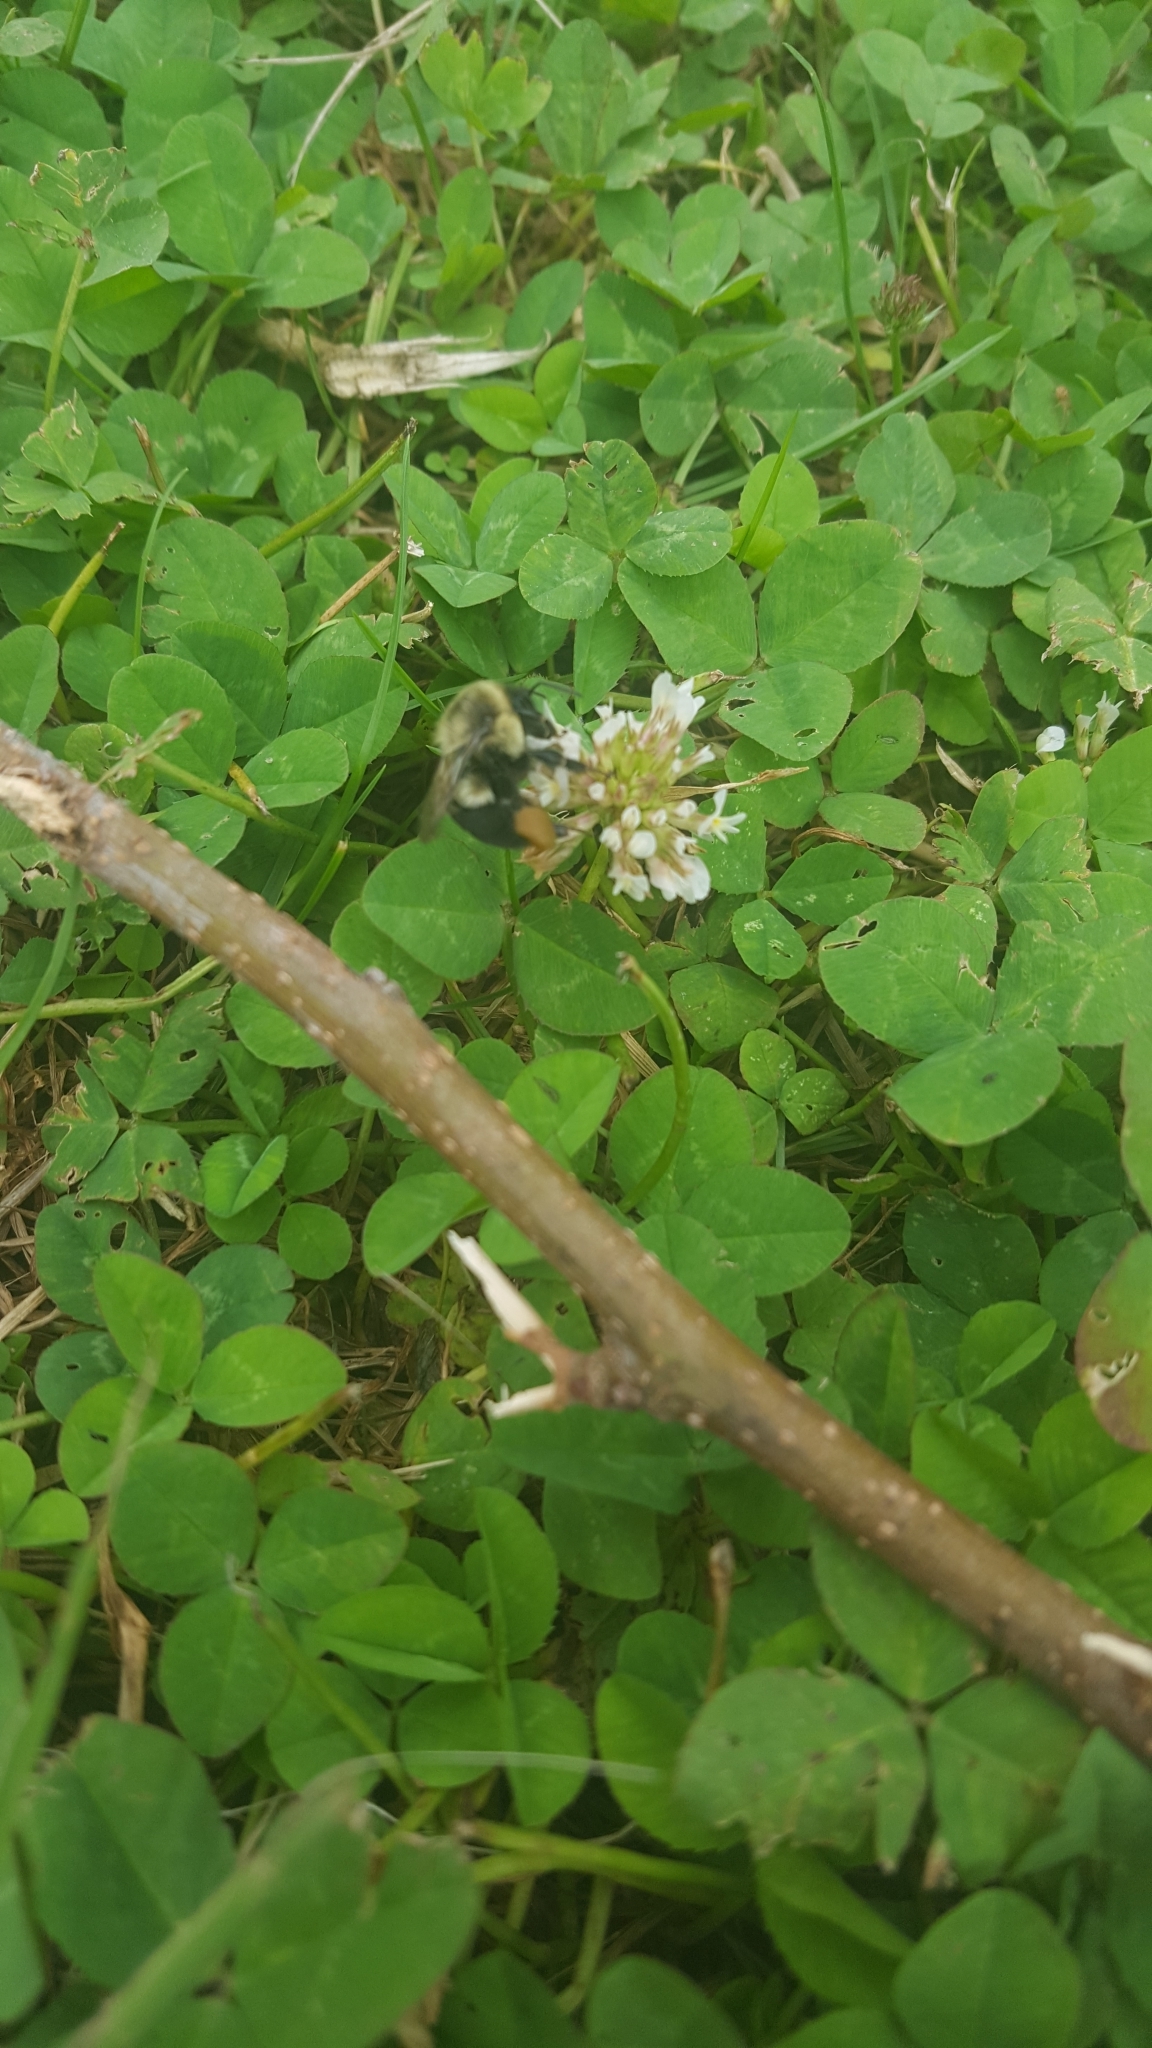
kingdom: Animalia
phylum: Arthropoda
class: Insecta
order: Hymenoptera
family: Apidae
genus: Bombus
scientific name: Bombus impatiens
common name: Common eastern bumble bee
